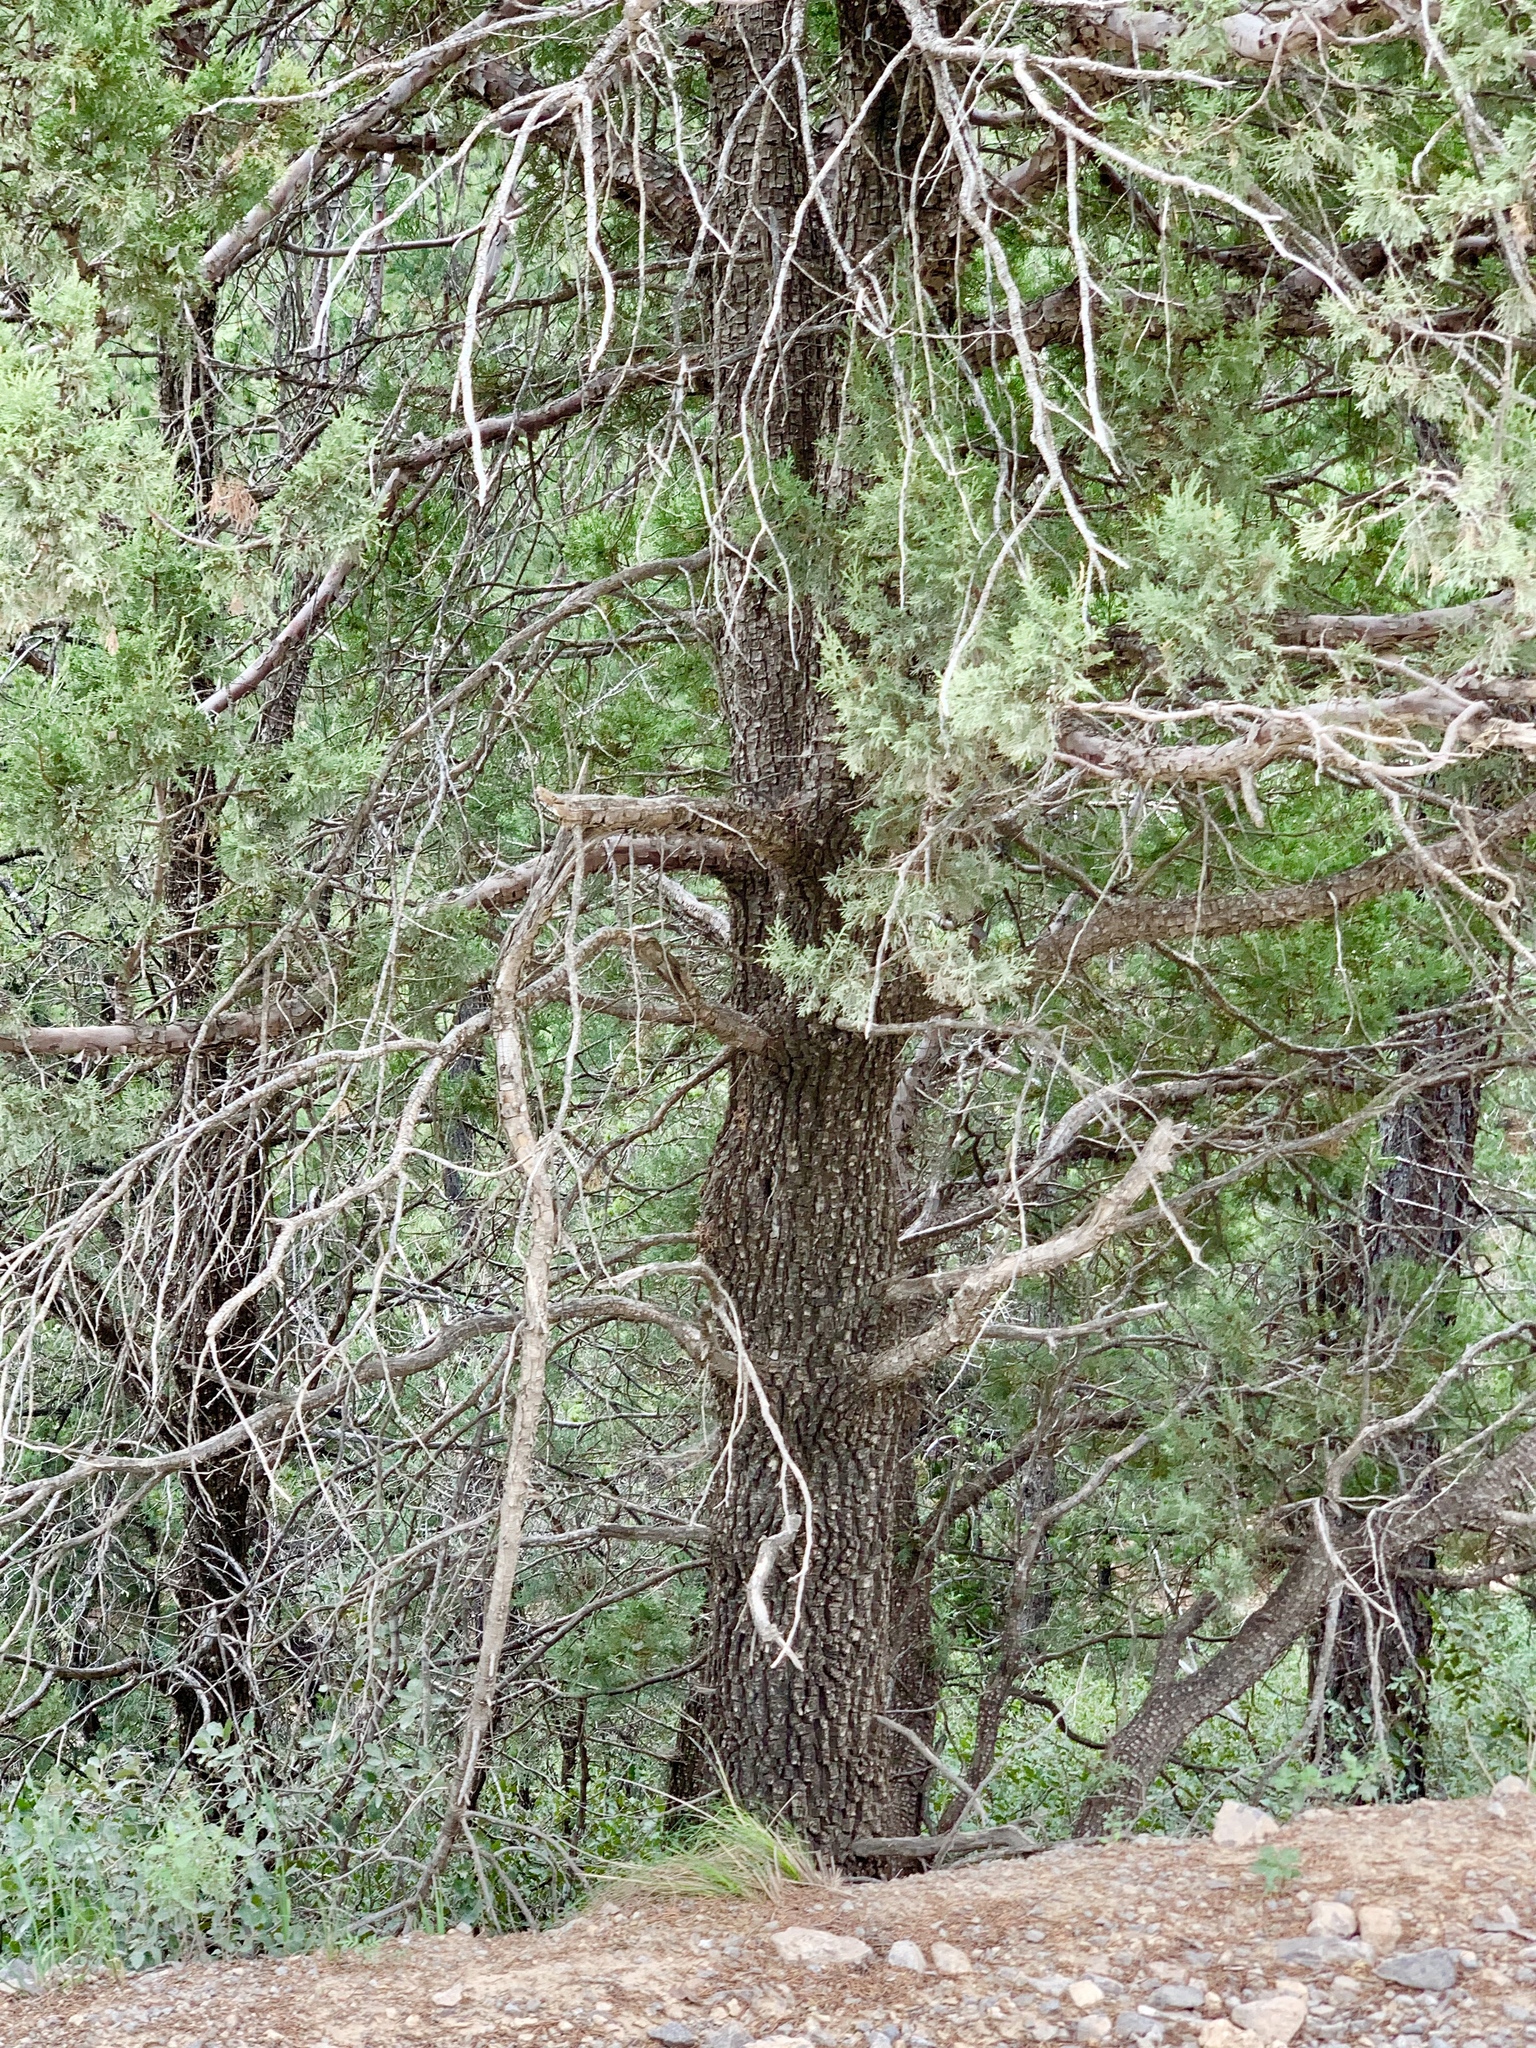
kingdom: Plantae
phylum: Tracheophyta
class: Pinopsida
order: Pinales
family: Cupressaceae
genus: Juniperus
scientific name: Juniperus deppeana
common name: Alligator juniper
